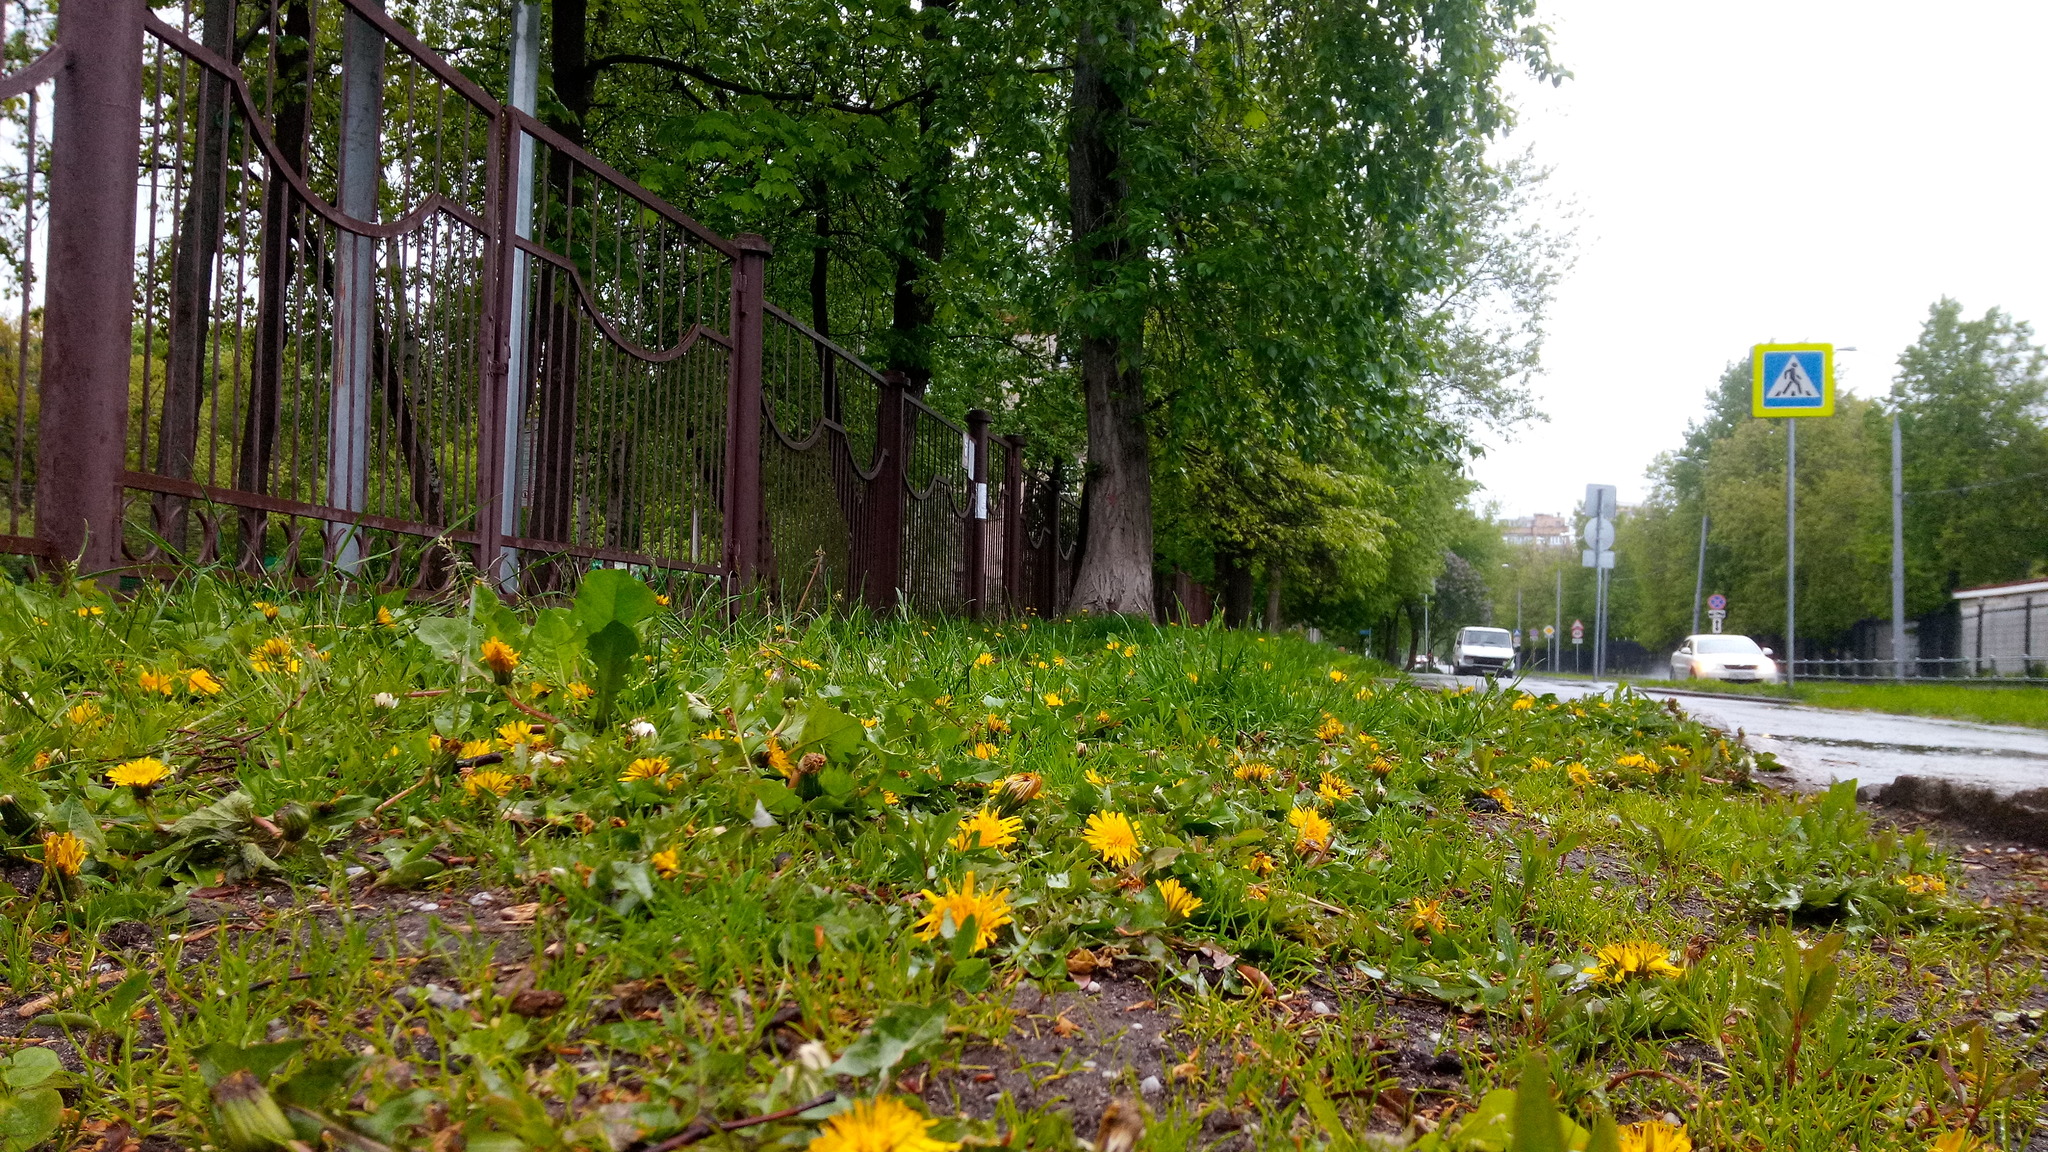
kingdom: Plantae
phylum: Tracheophyta
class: Magnoliopsida
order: Asterales
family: Asteraceae
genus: Taraxacum
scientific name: Taraxacum officinale
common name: Common dandelion
